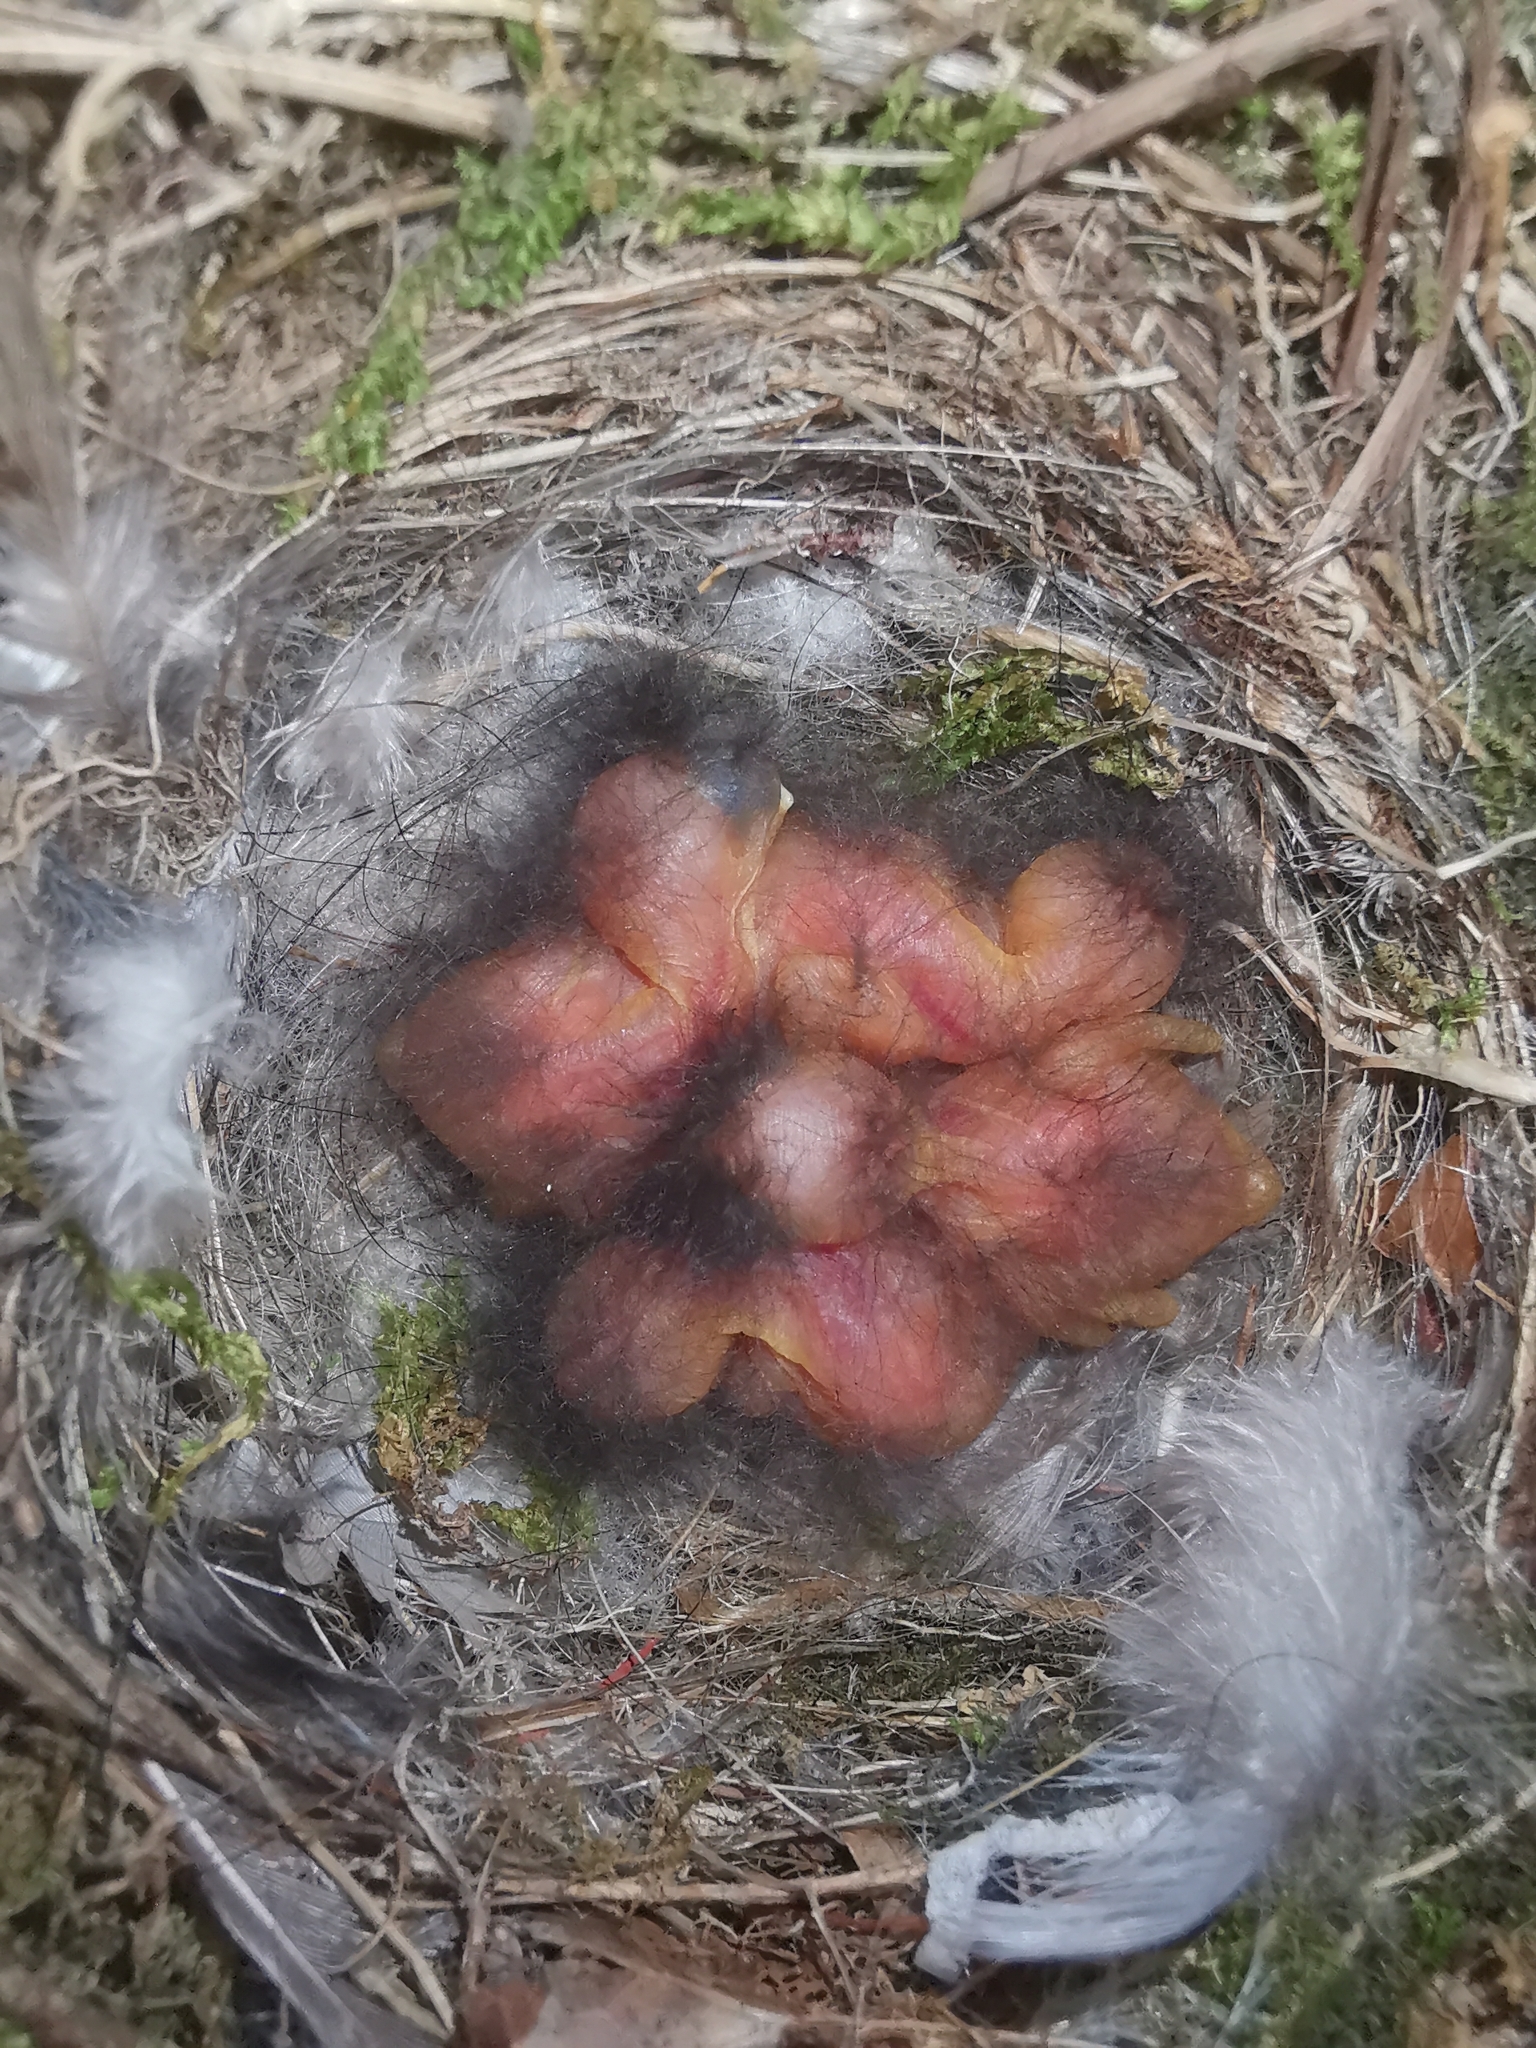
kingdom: Animalia
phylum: Chordata
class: Aves
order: Passeriformes
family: Muscicapidae
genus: Phoenicurus
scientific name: Phoenicurus ochruros
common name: Black redstart
